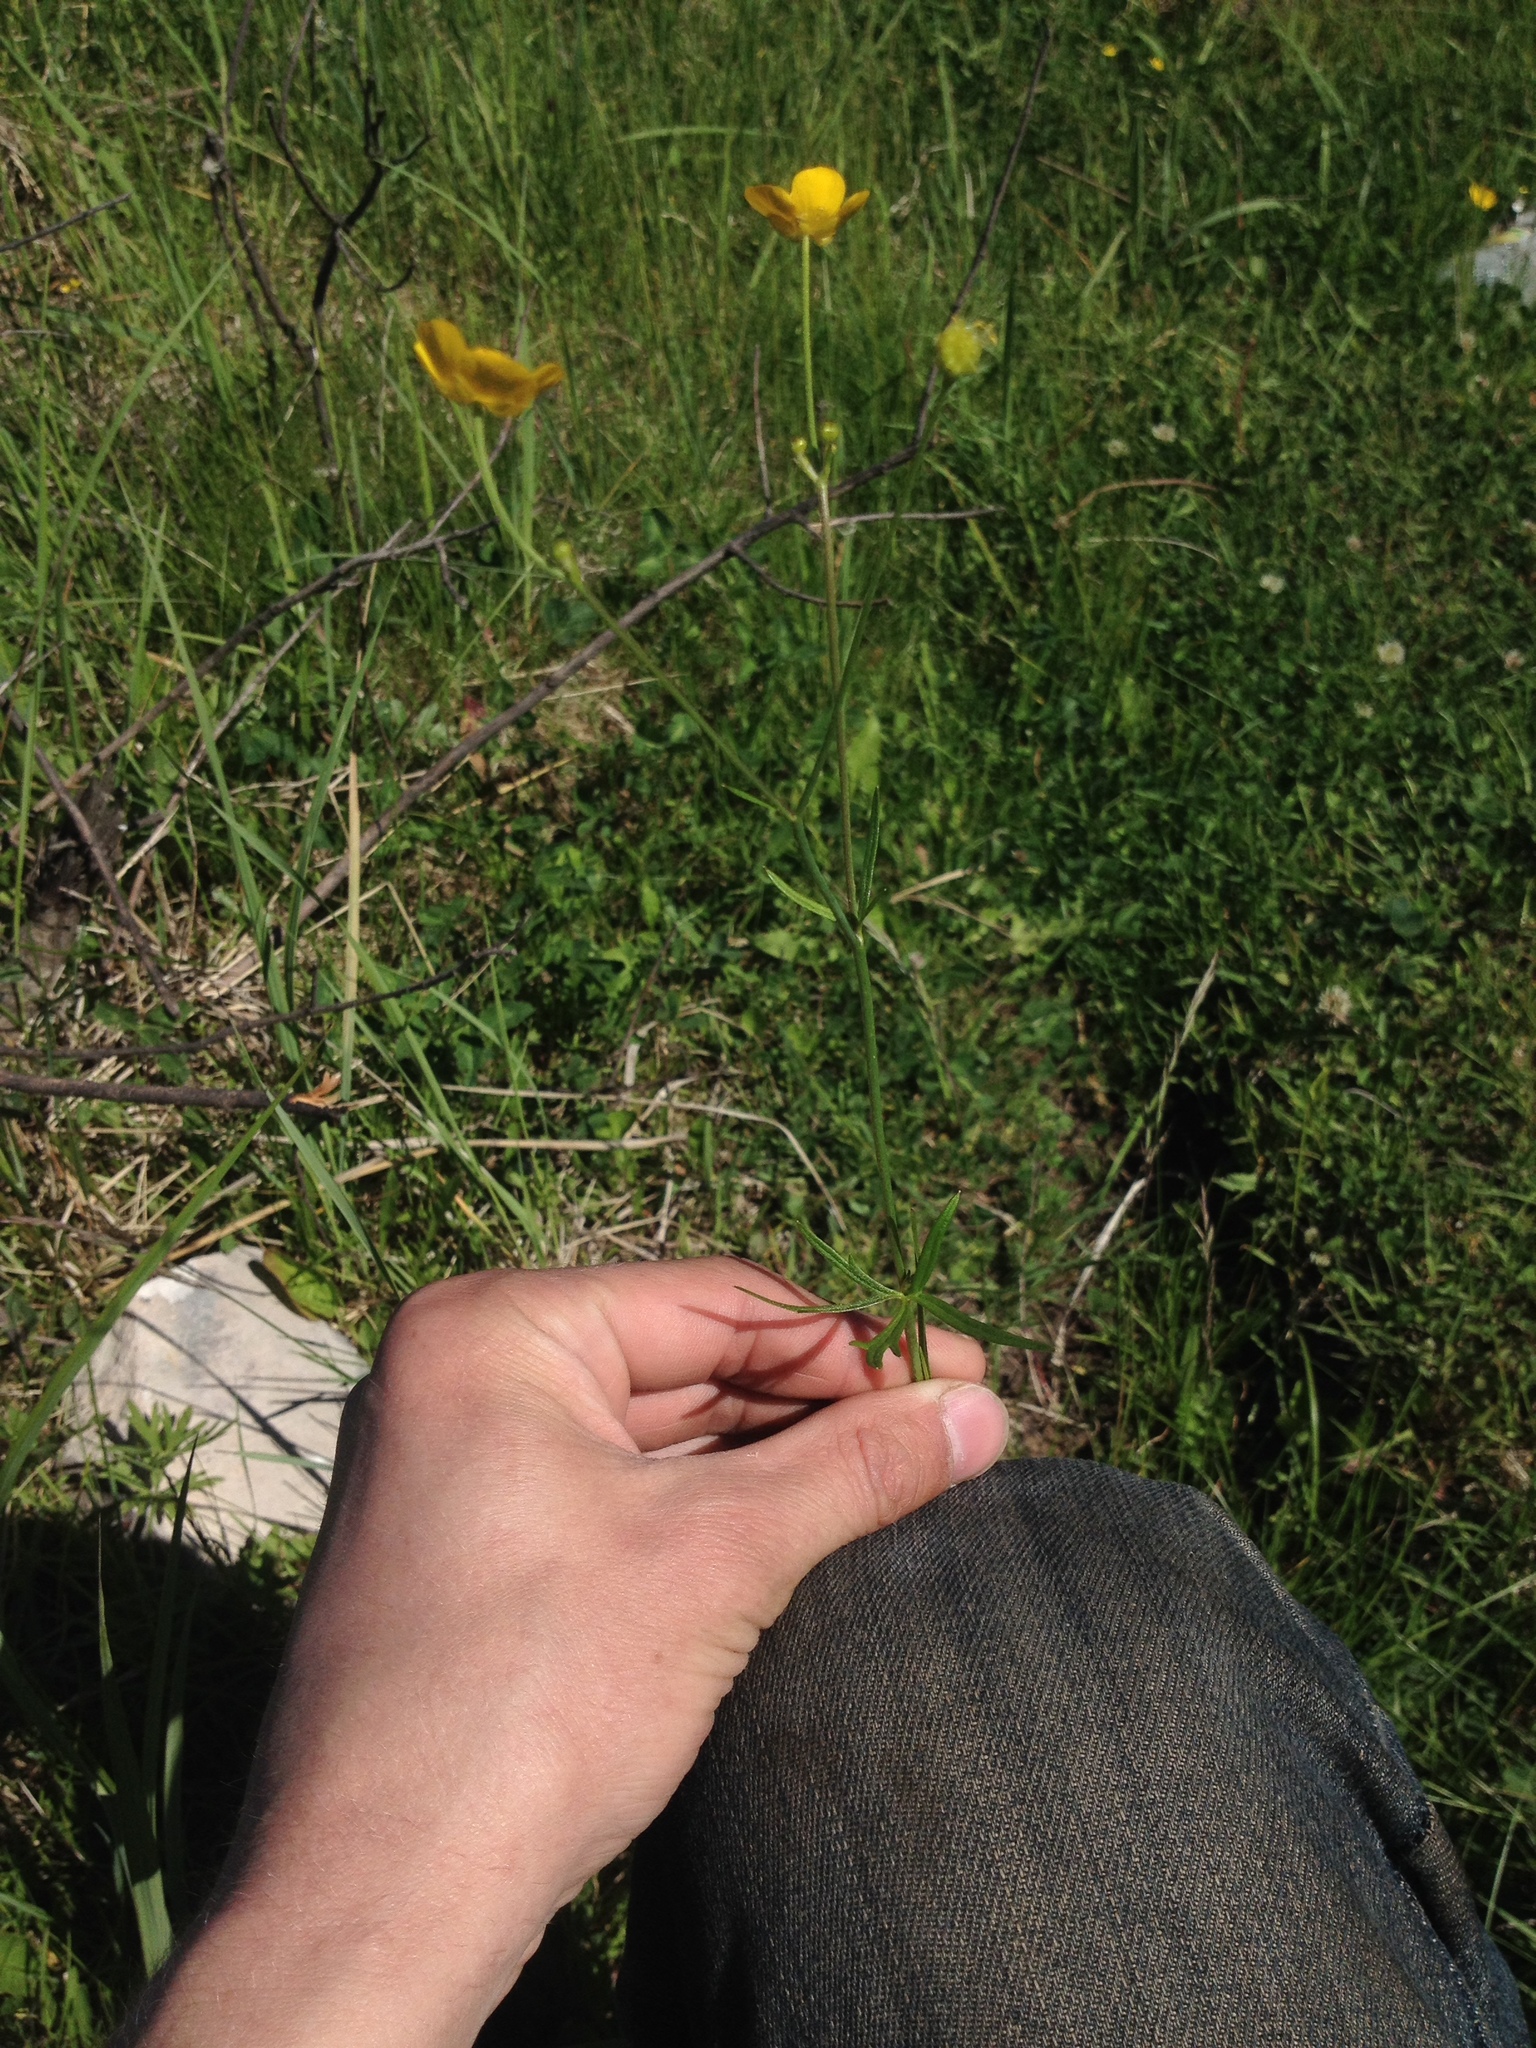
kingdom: Plantae
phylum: Tracheophyta
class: Magnoliopsida
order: Ranunculales
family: Ranunculaceae
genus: Ranunculus
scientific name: Ranunculus acris
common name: Meadow buttercup
